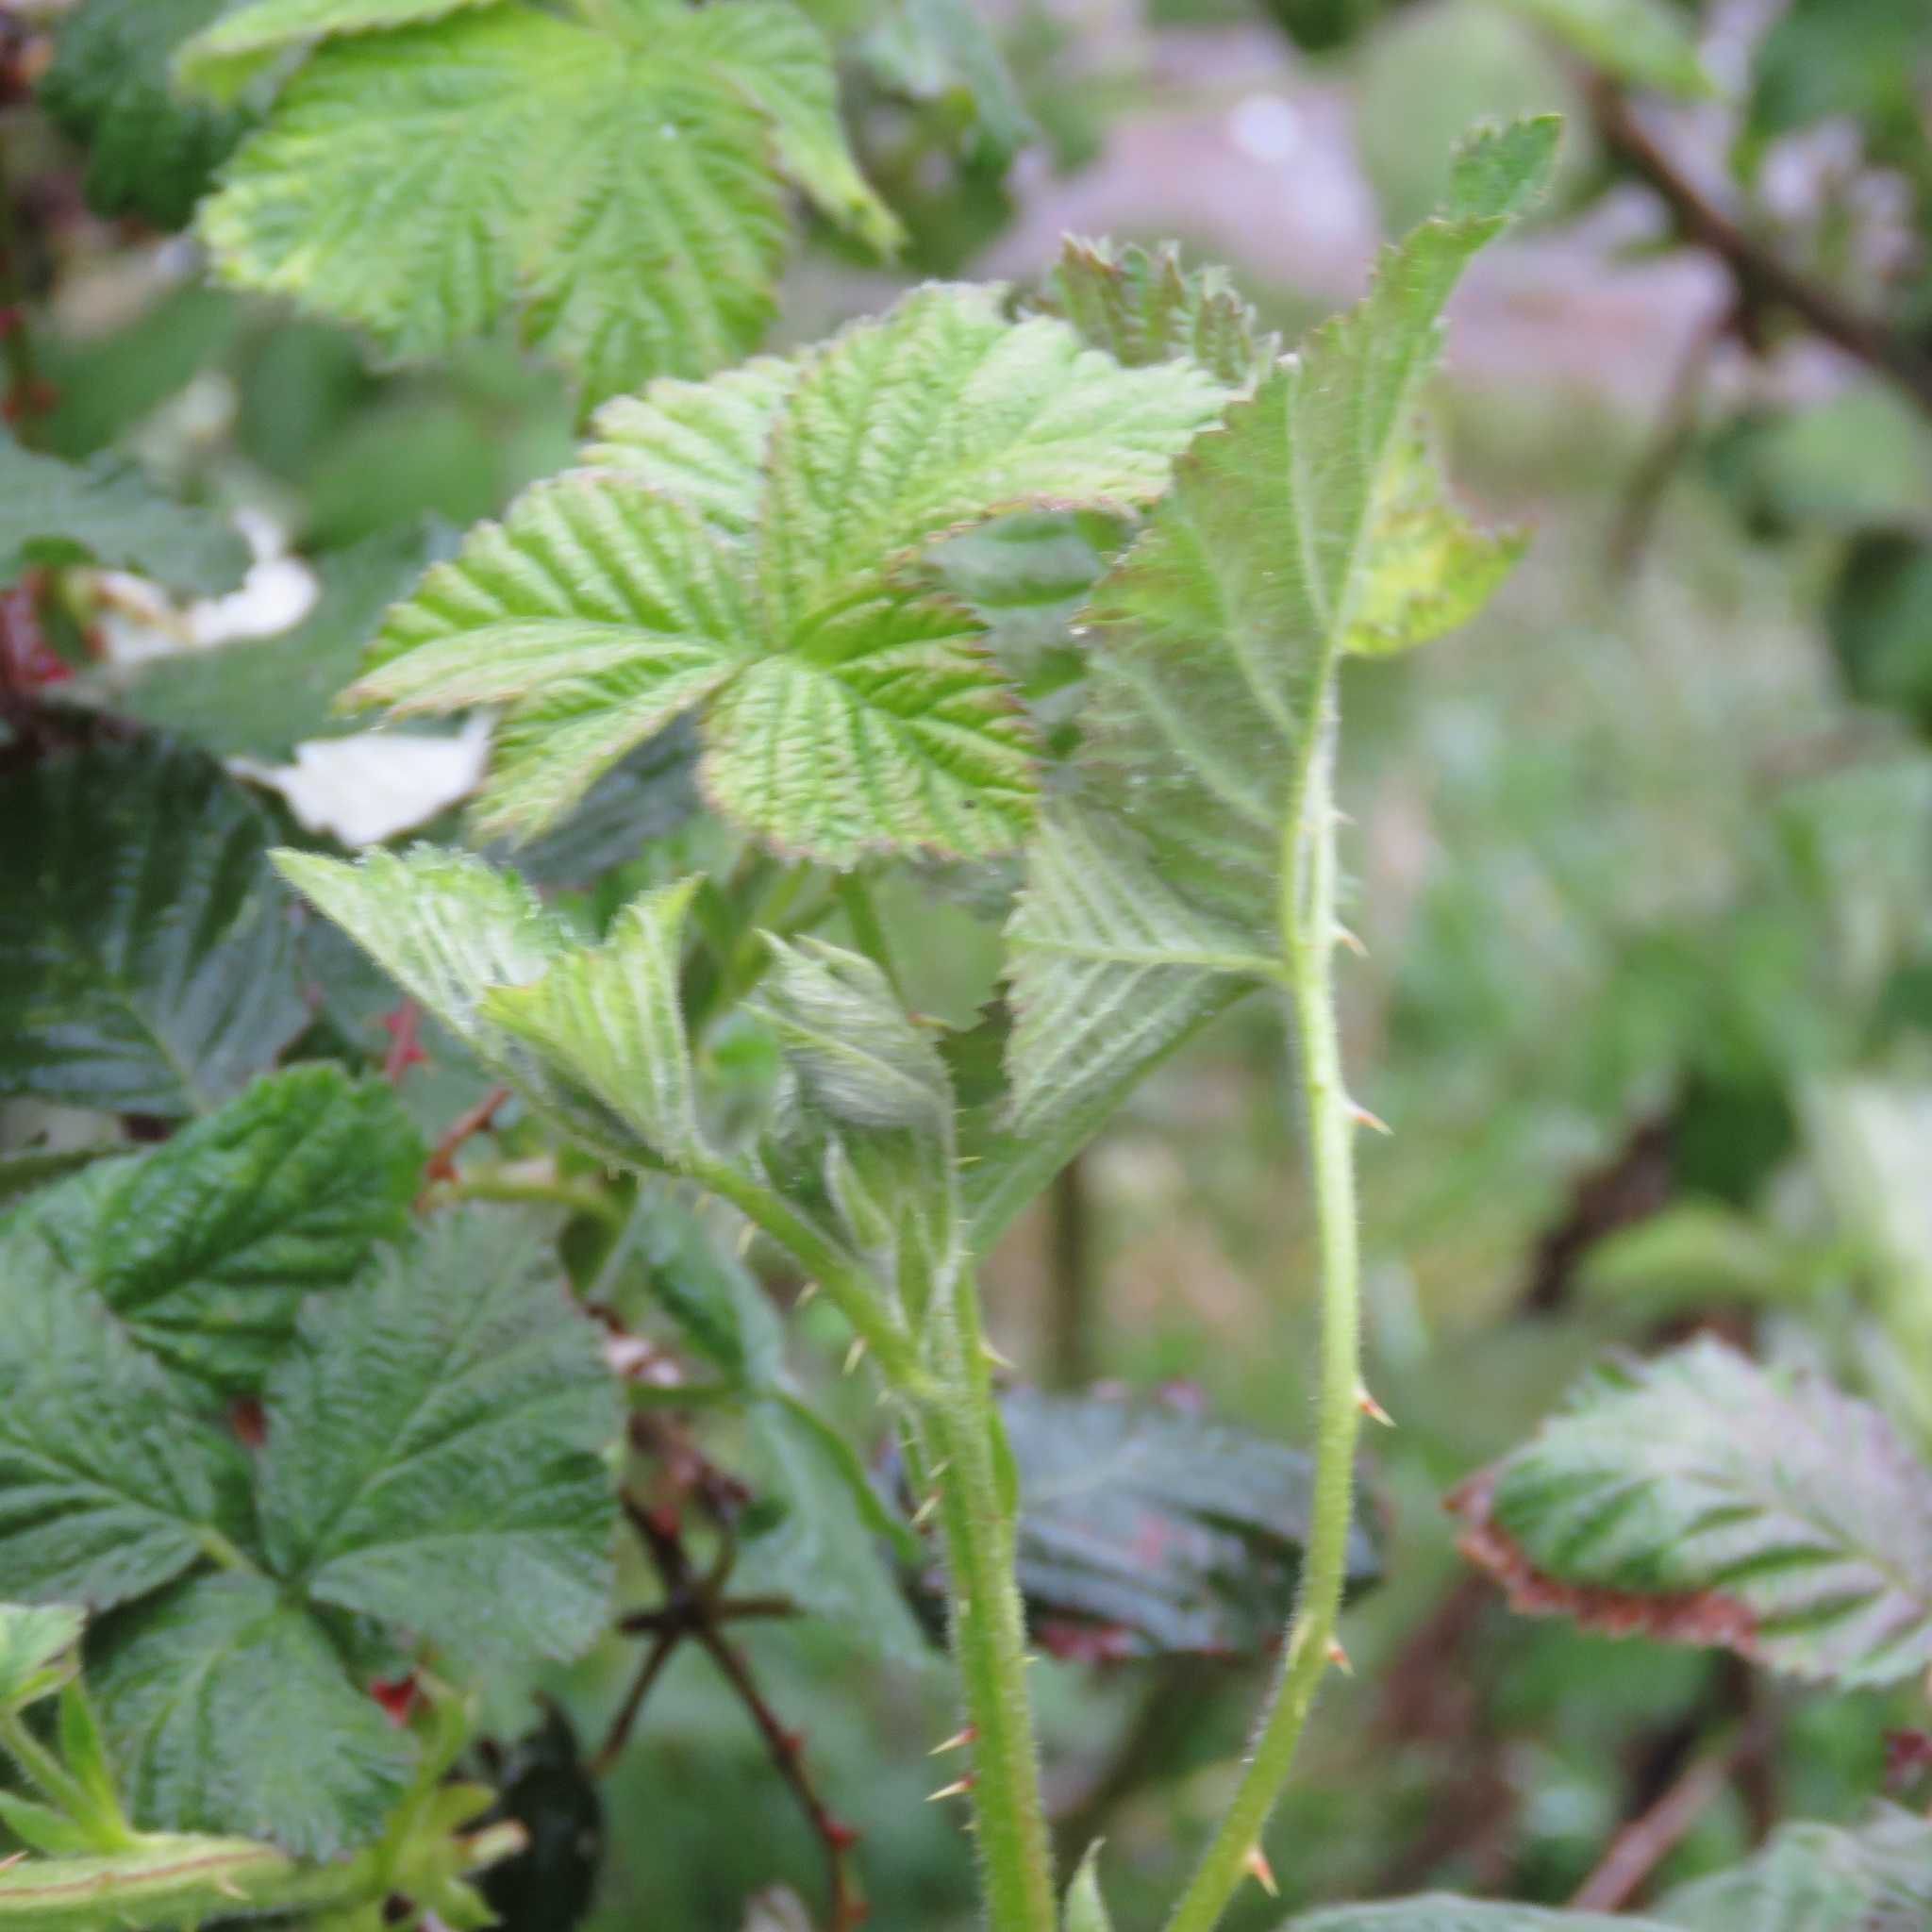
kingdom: Plantae
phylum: Tracheophyta
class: Magnoliopsida
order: Rosales
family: Rosaceae
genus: Rubus
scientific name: Rubus
